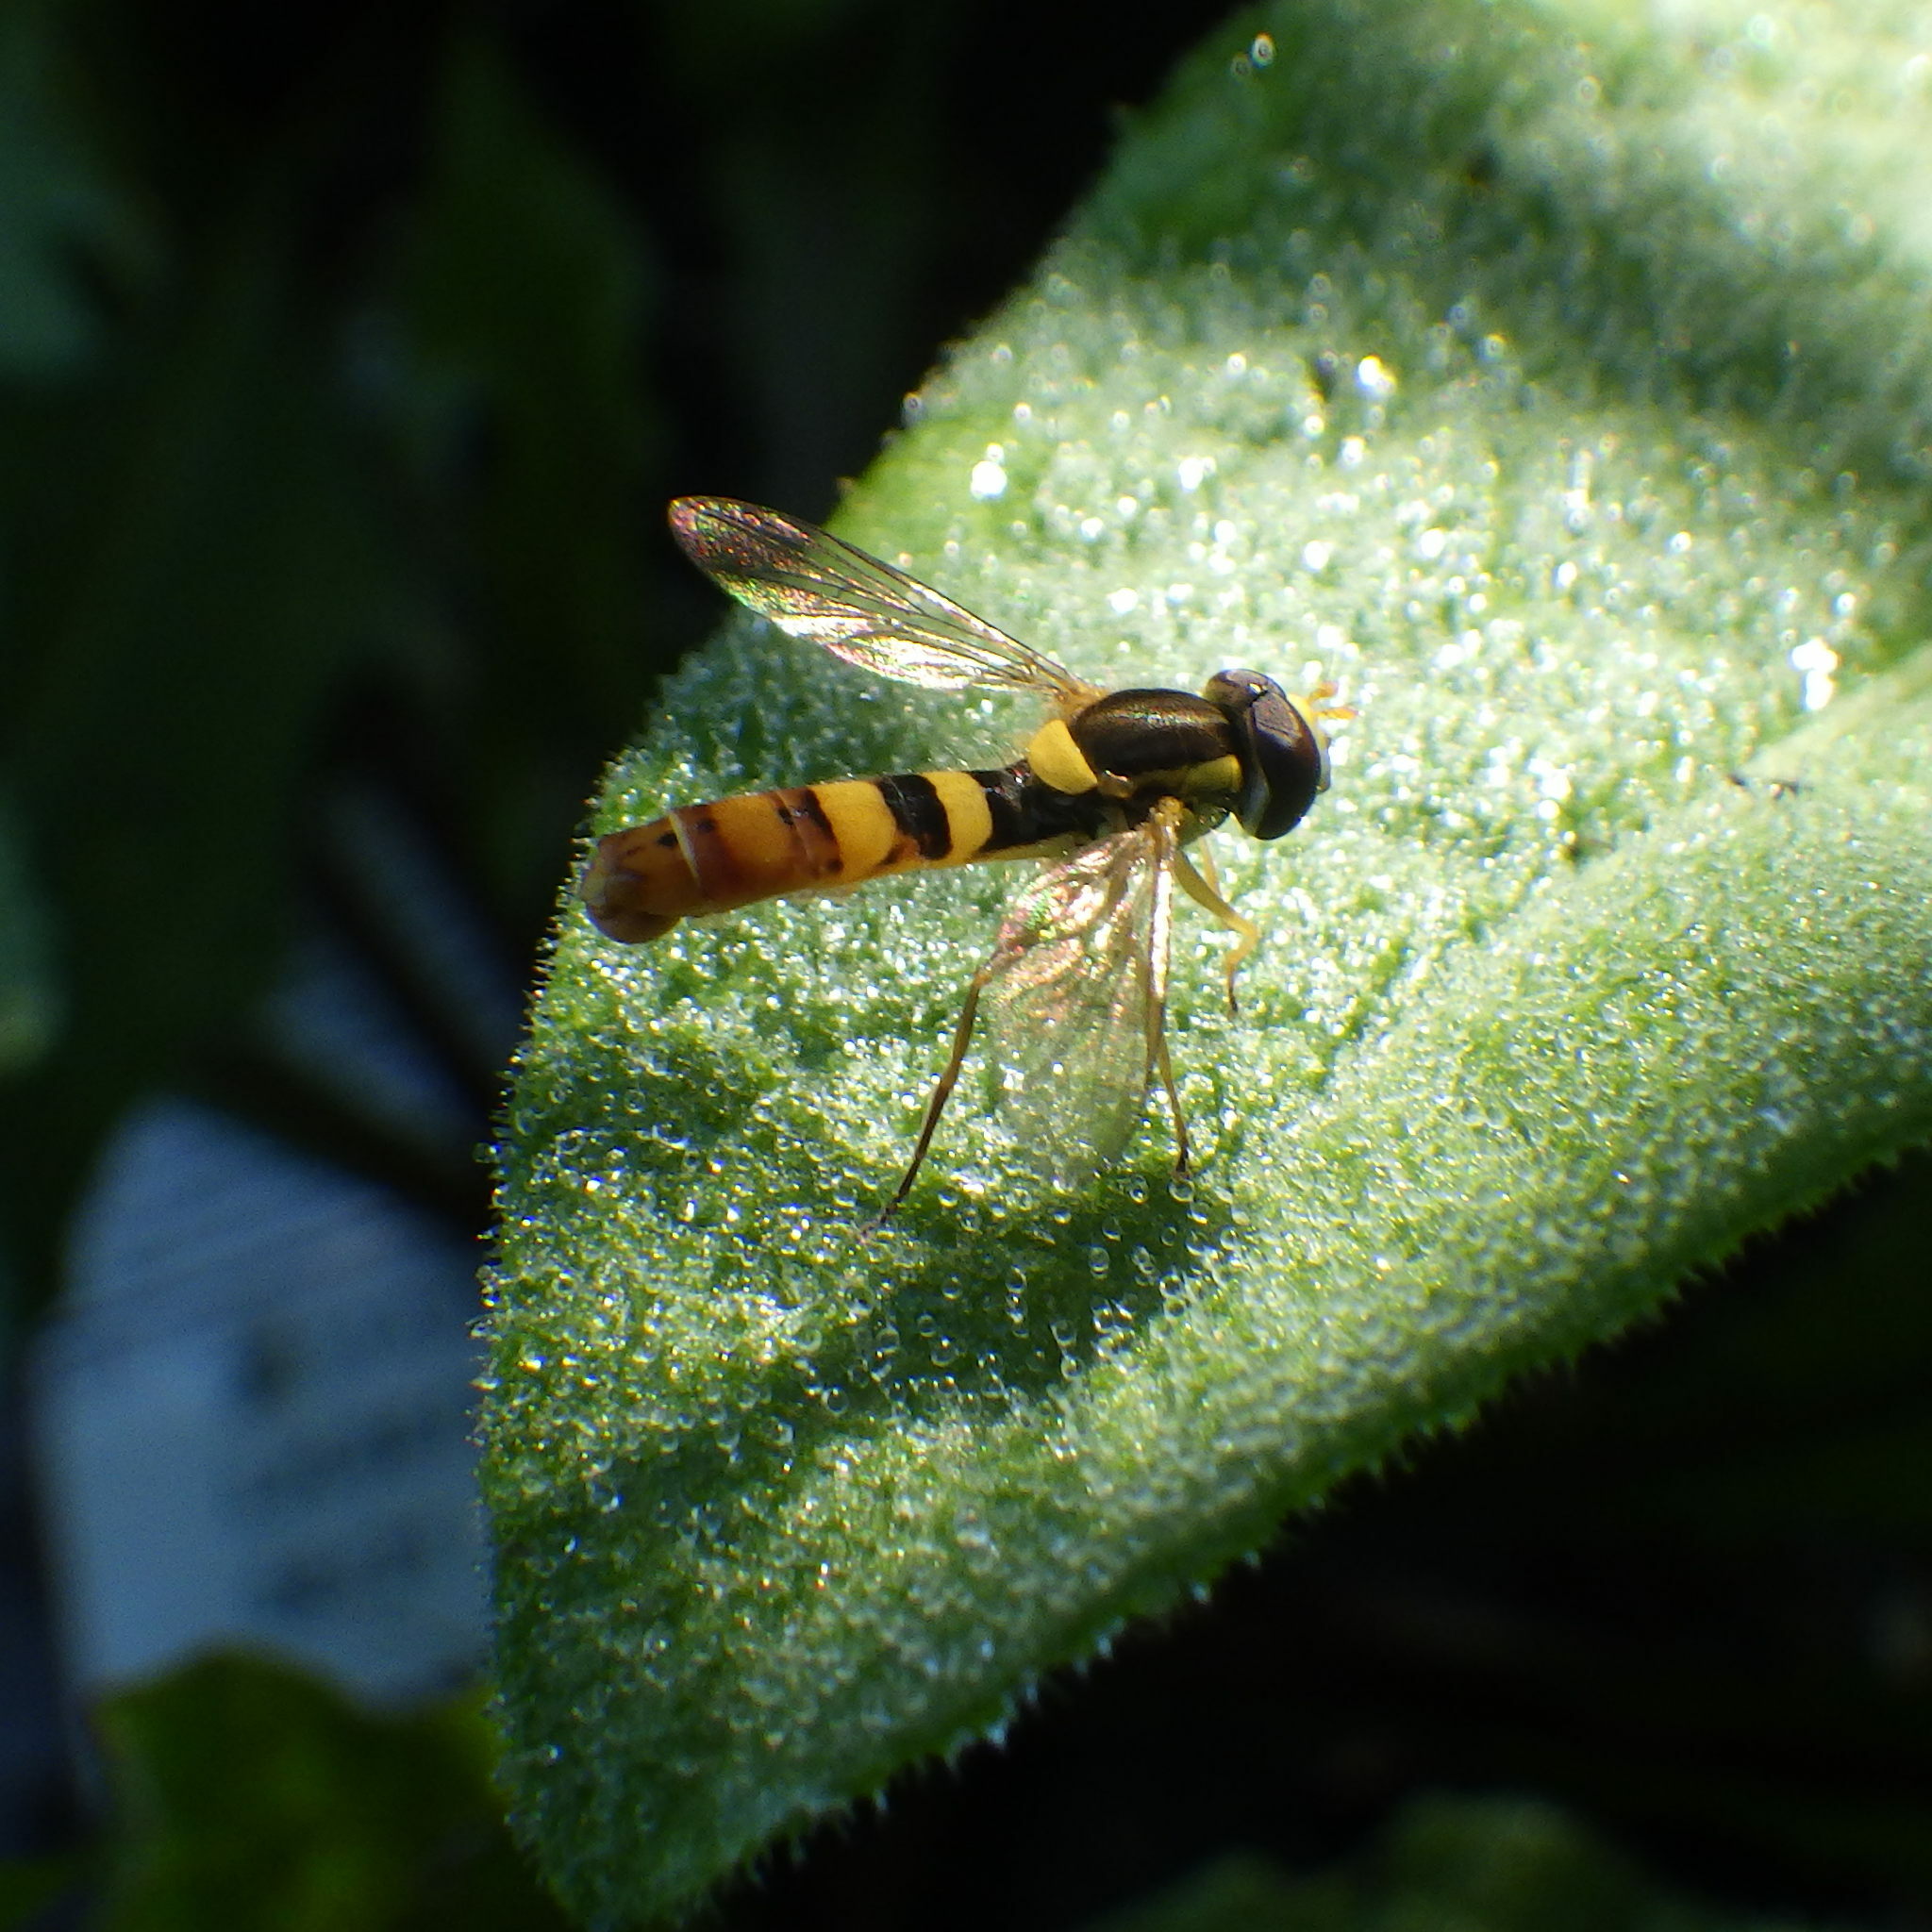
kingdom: Animalia
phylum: Arthropoda
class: Insecta
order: Diptera
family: Syrphidae
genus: Sphaerophoria
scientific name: Sphaerophoria philantha
